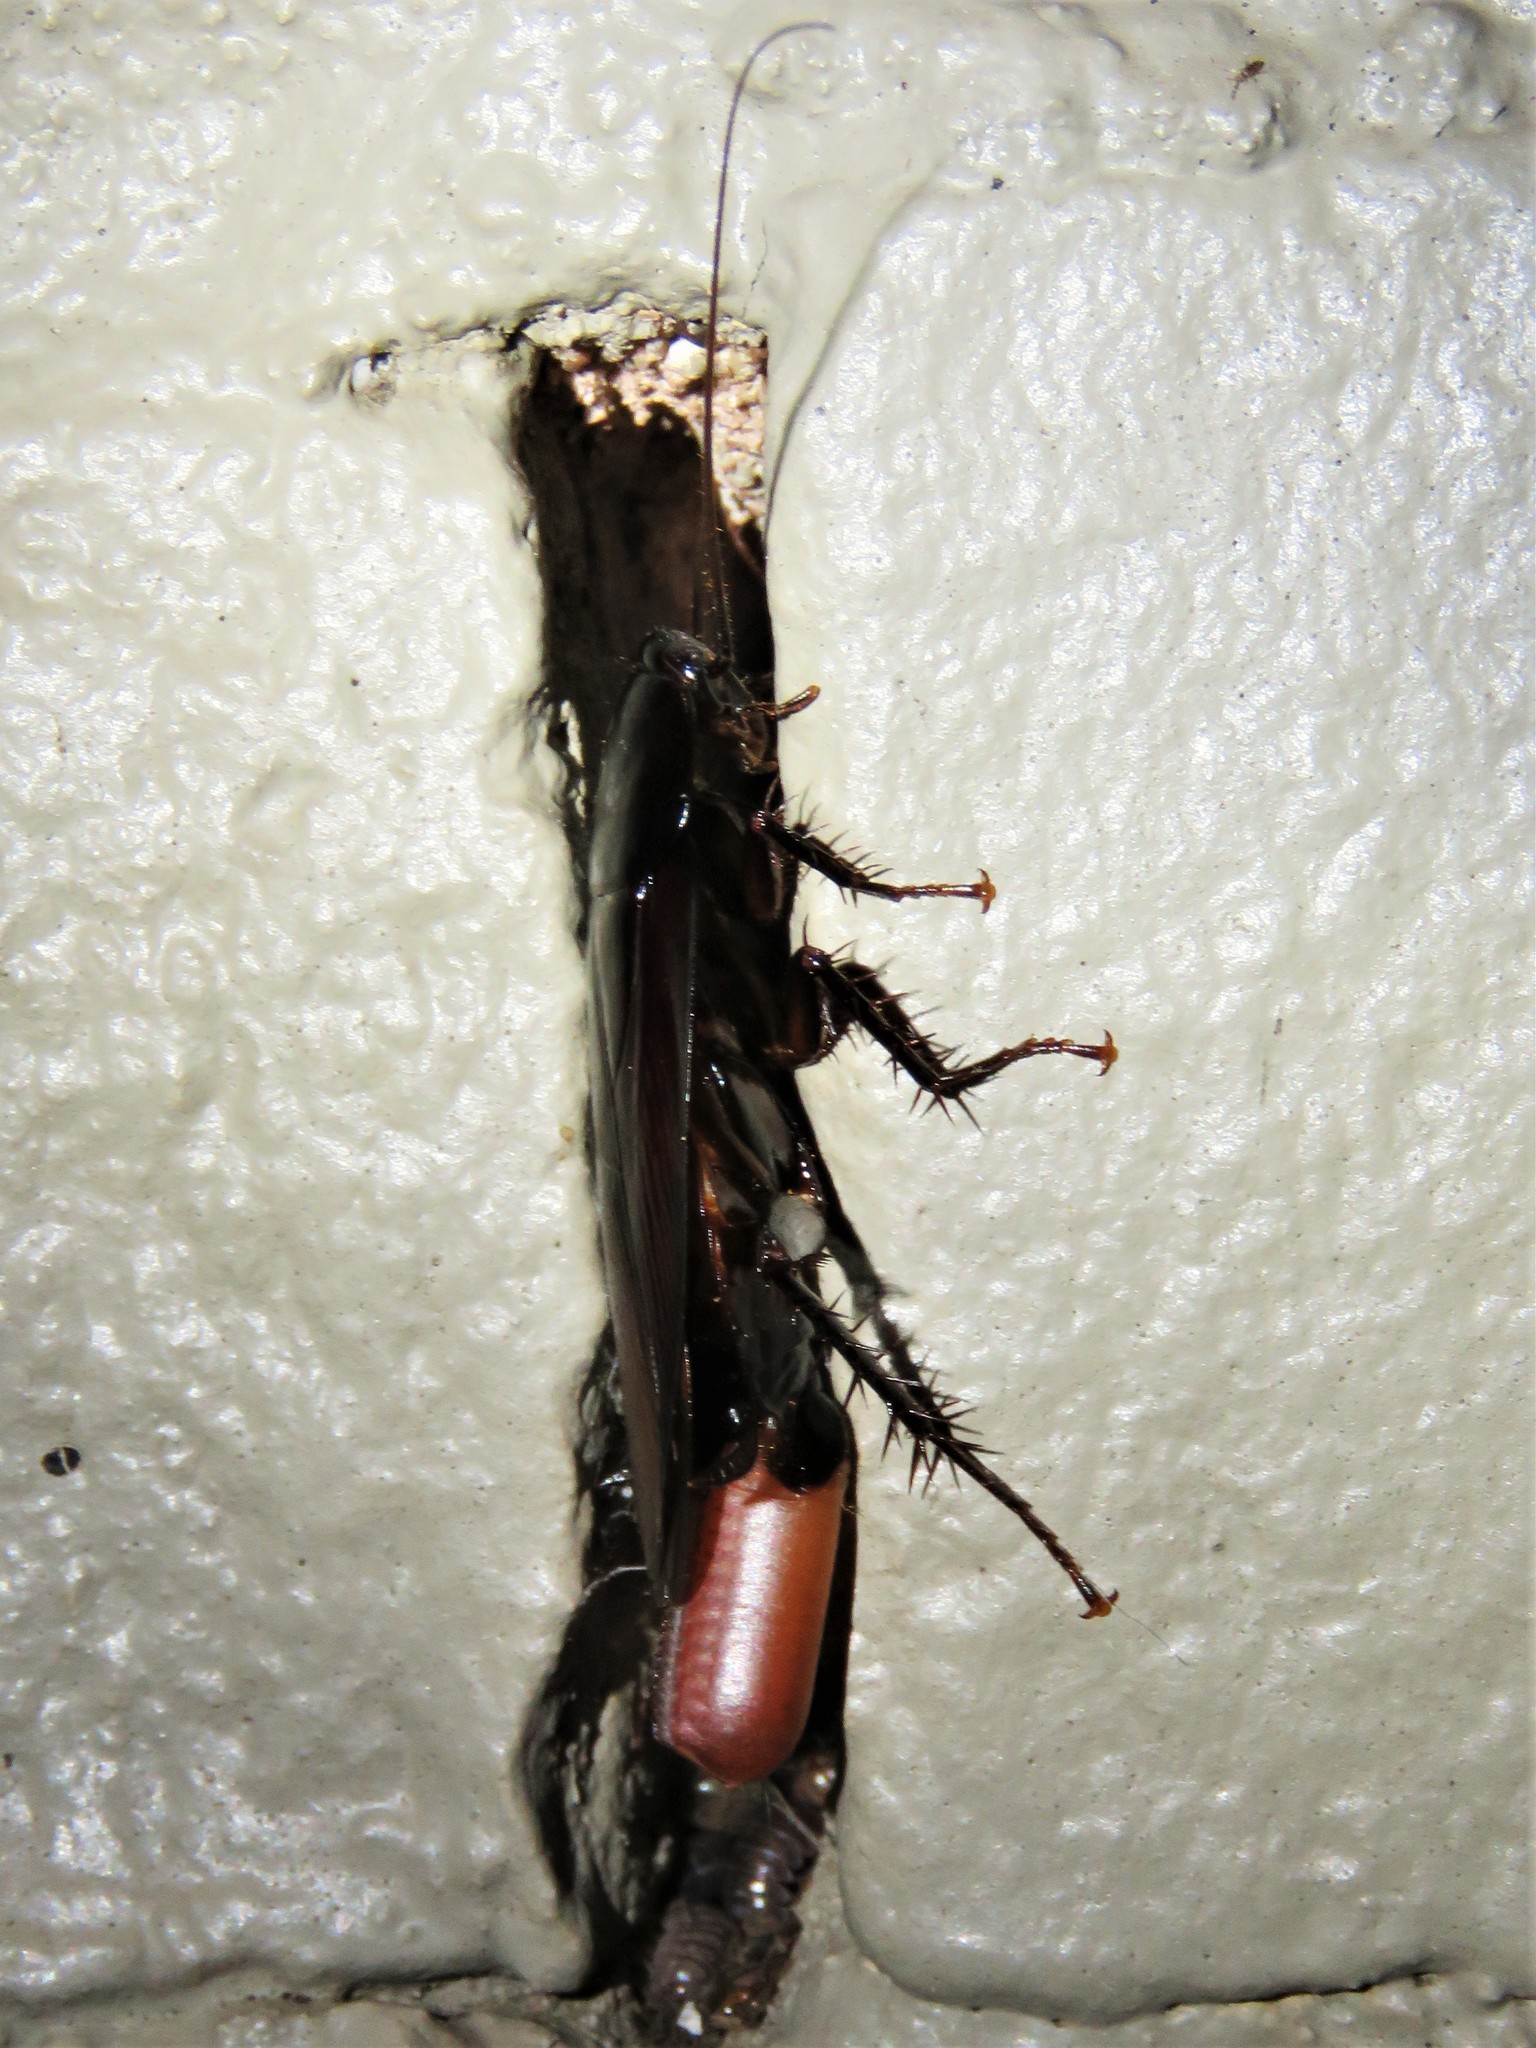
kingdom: Animalia
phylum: Arthropoda
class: Insecta
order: Blattodea
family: Blattidae
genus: Periplaneta
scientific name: Periplaneta fuliginosa
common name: Smokeybrown cockroad
